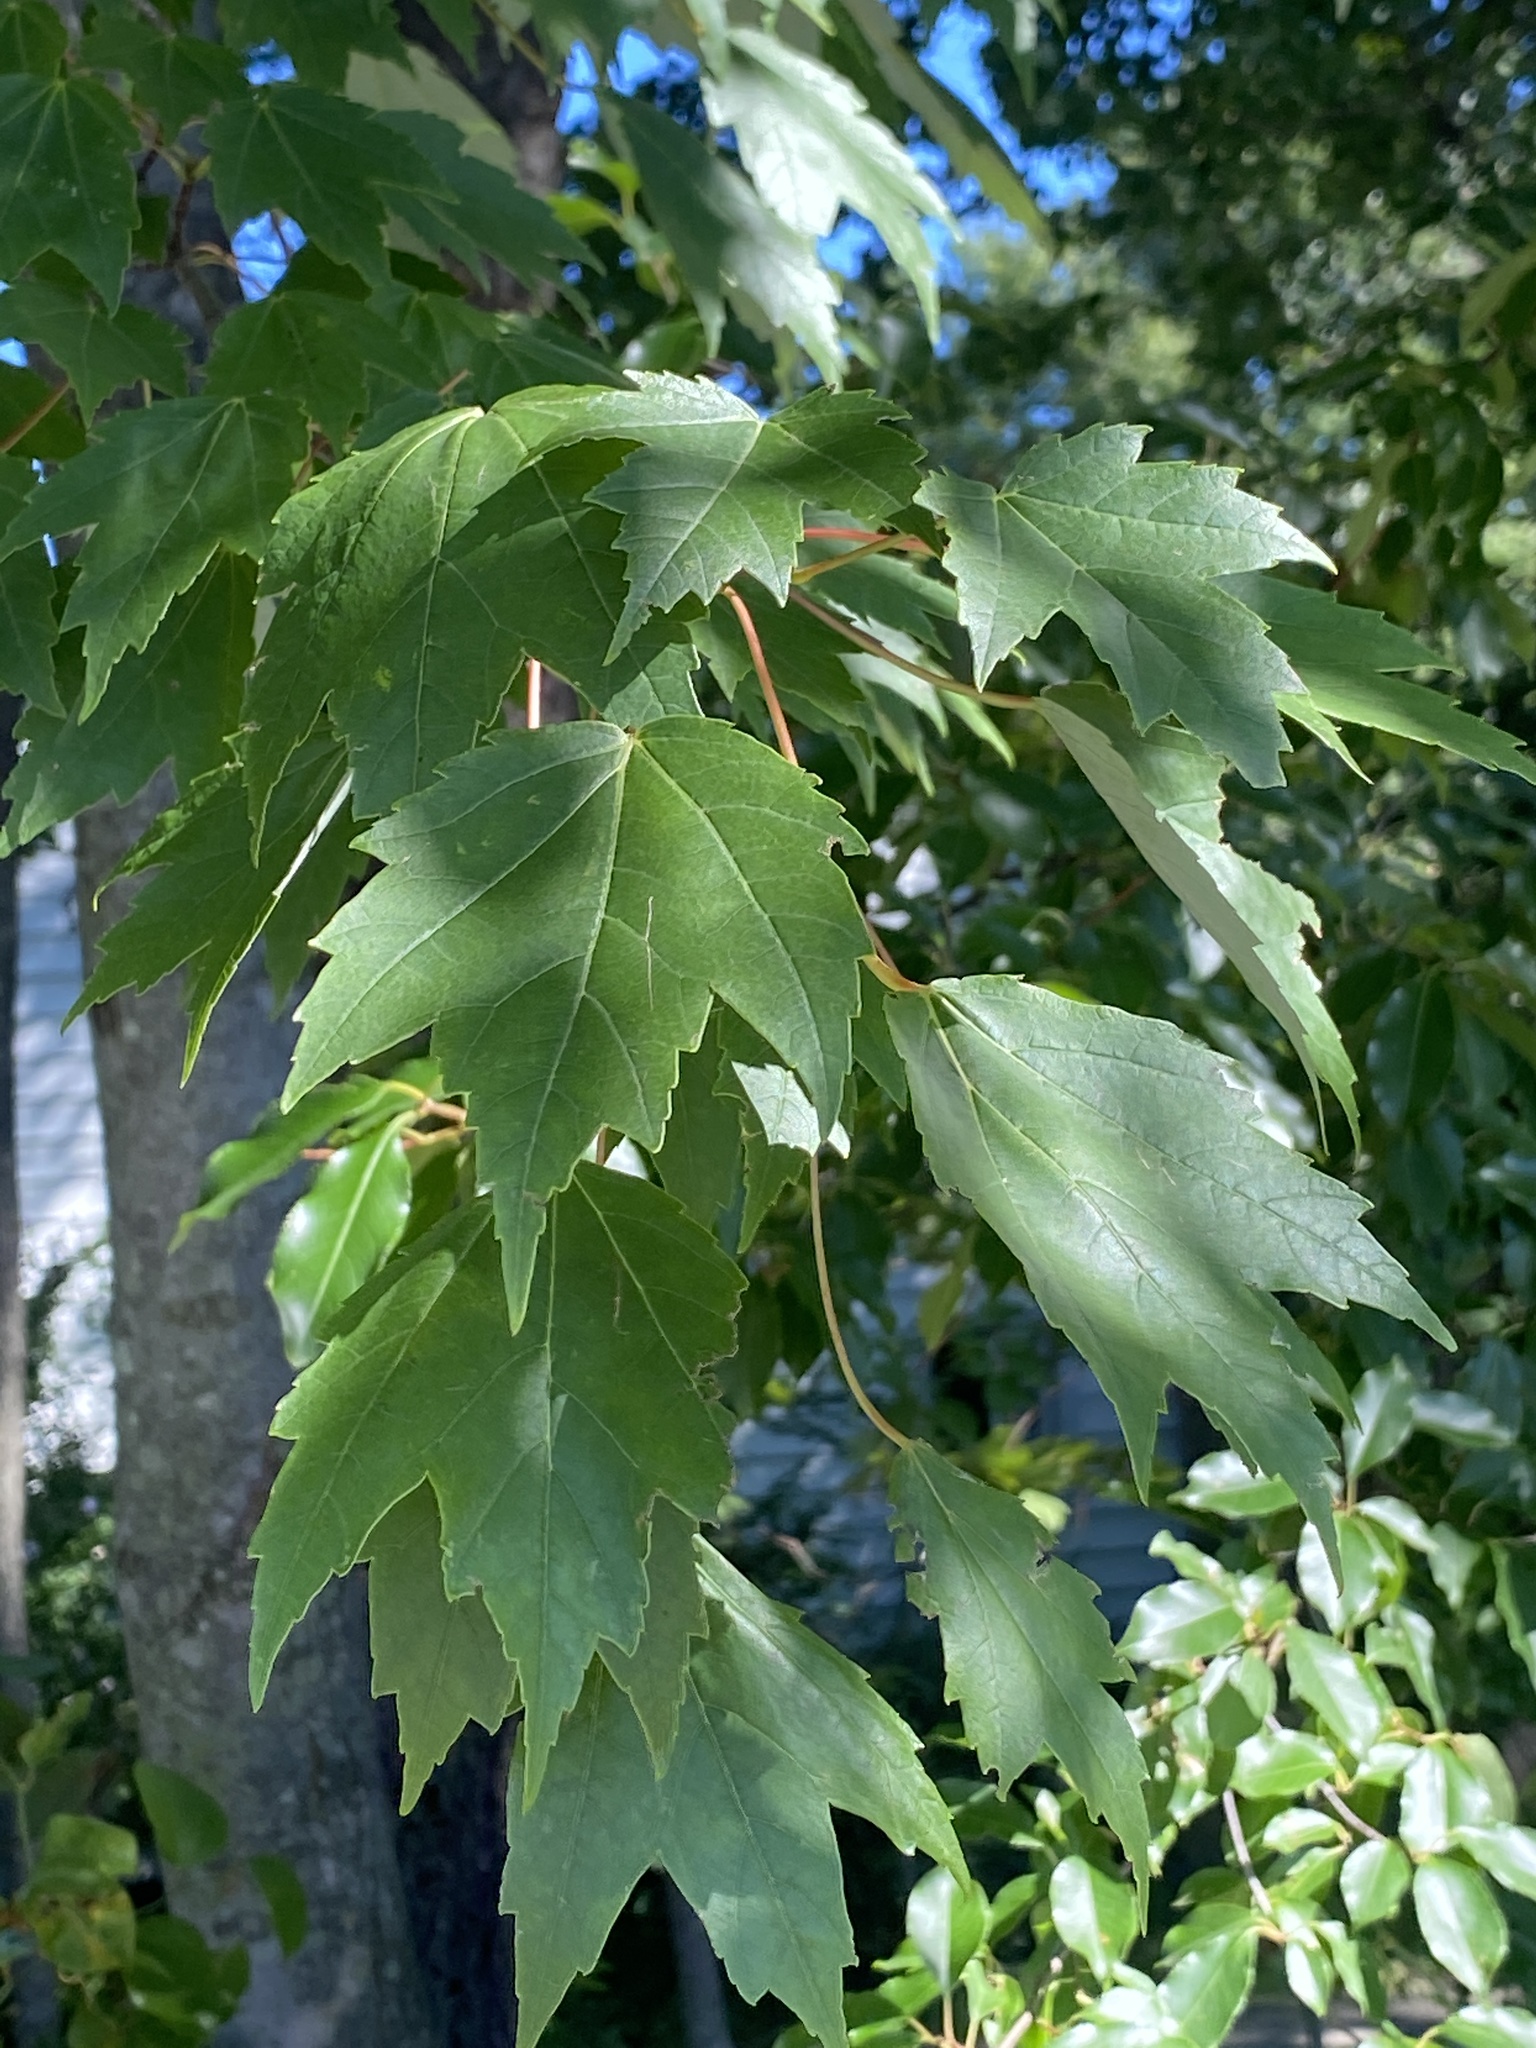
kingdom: Plantae
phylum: Tracheophyta
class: Magnoliopsida
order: Sapindales
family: Sapindaceae
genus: Acer
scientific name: Acer rubrum
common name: Red maple
